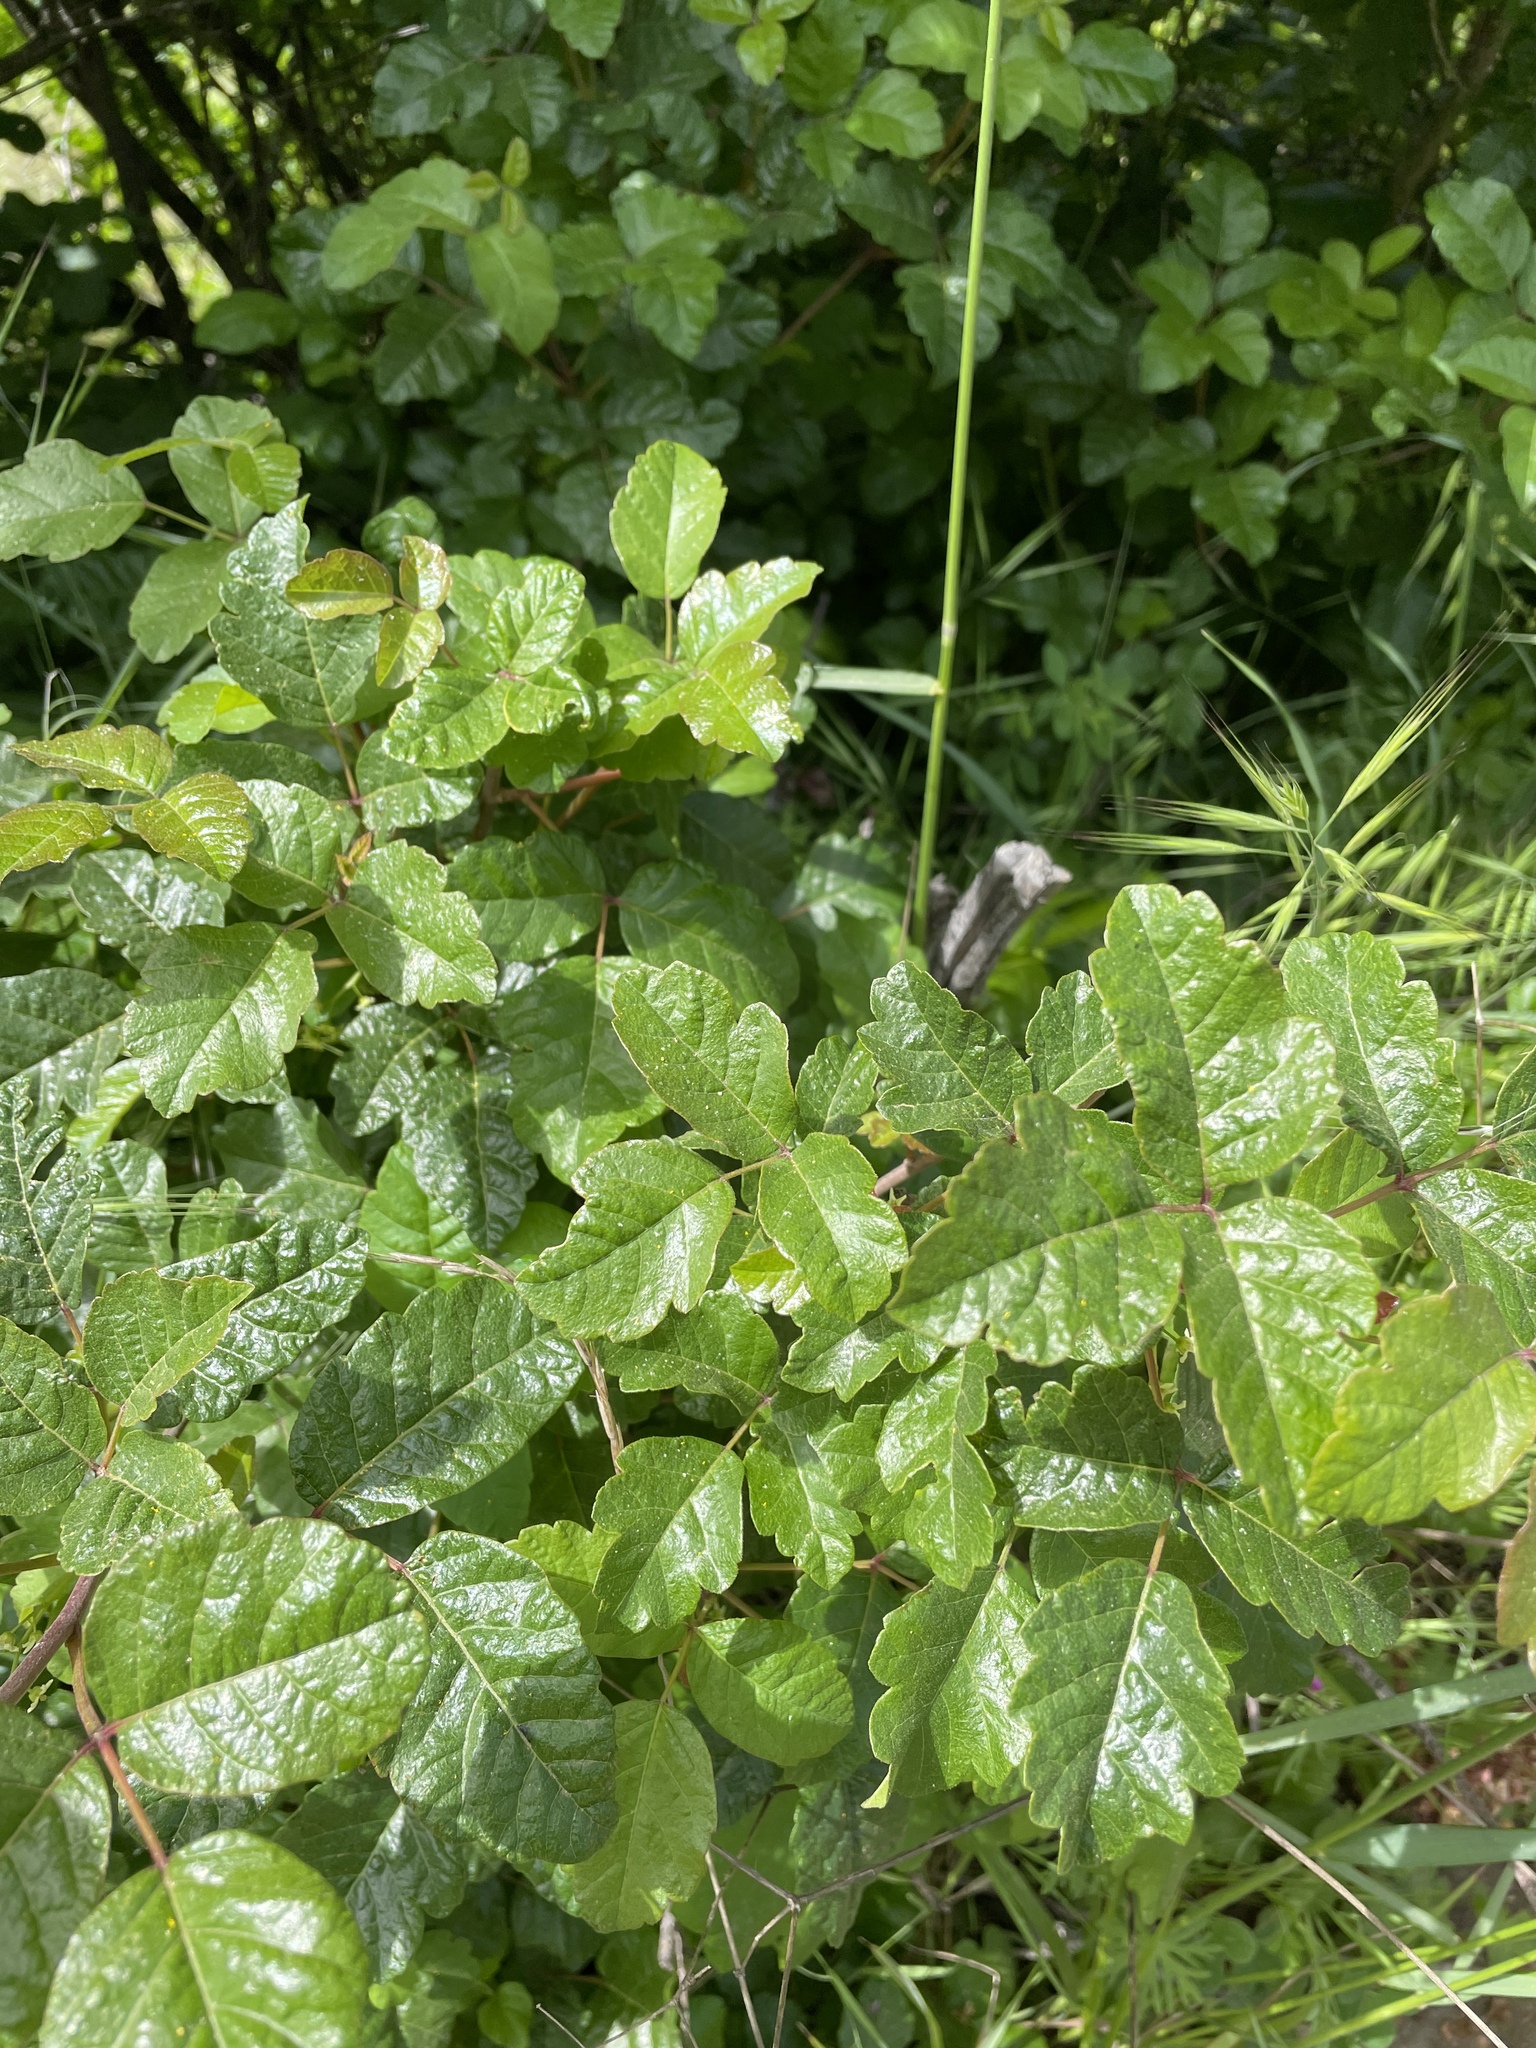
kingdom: Plantae
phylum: Tracheophyta
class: Magnoliopsida
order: Sapindales
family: Anacardiaceae
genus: Toxicodendron
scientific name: Toxicodendron diversilobum
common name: Pacific poison-oak
